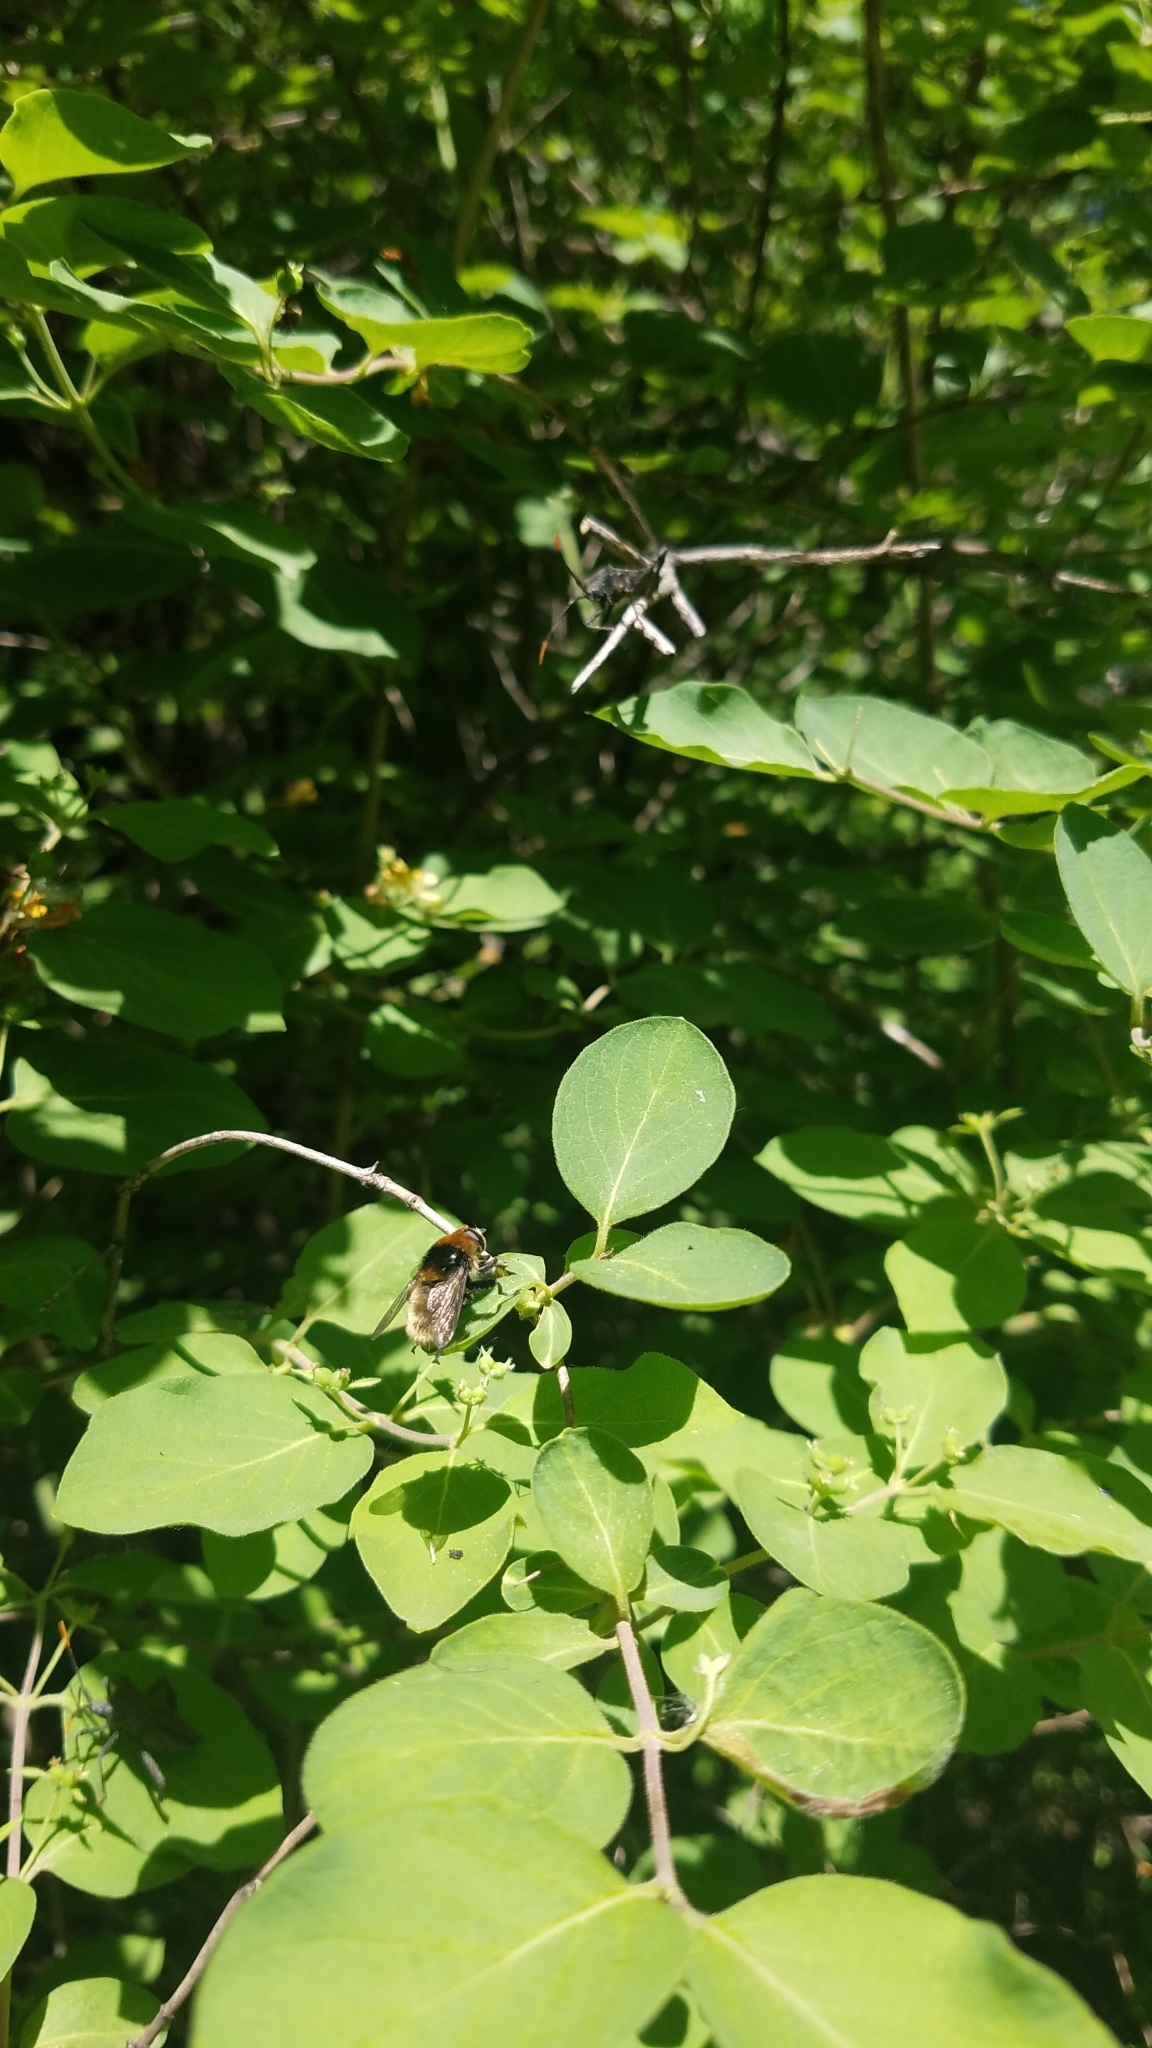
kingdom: Animalia
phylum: Arthropoda
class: Insecta
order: Diptera
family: Syrphidae
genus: Merodon
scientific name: Merodon equestris
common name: Greater bulb-fly
